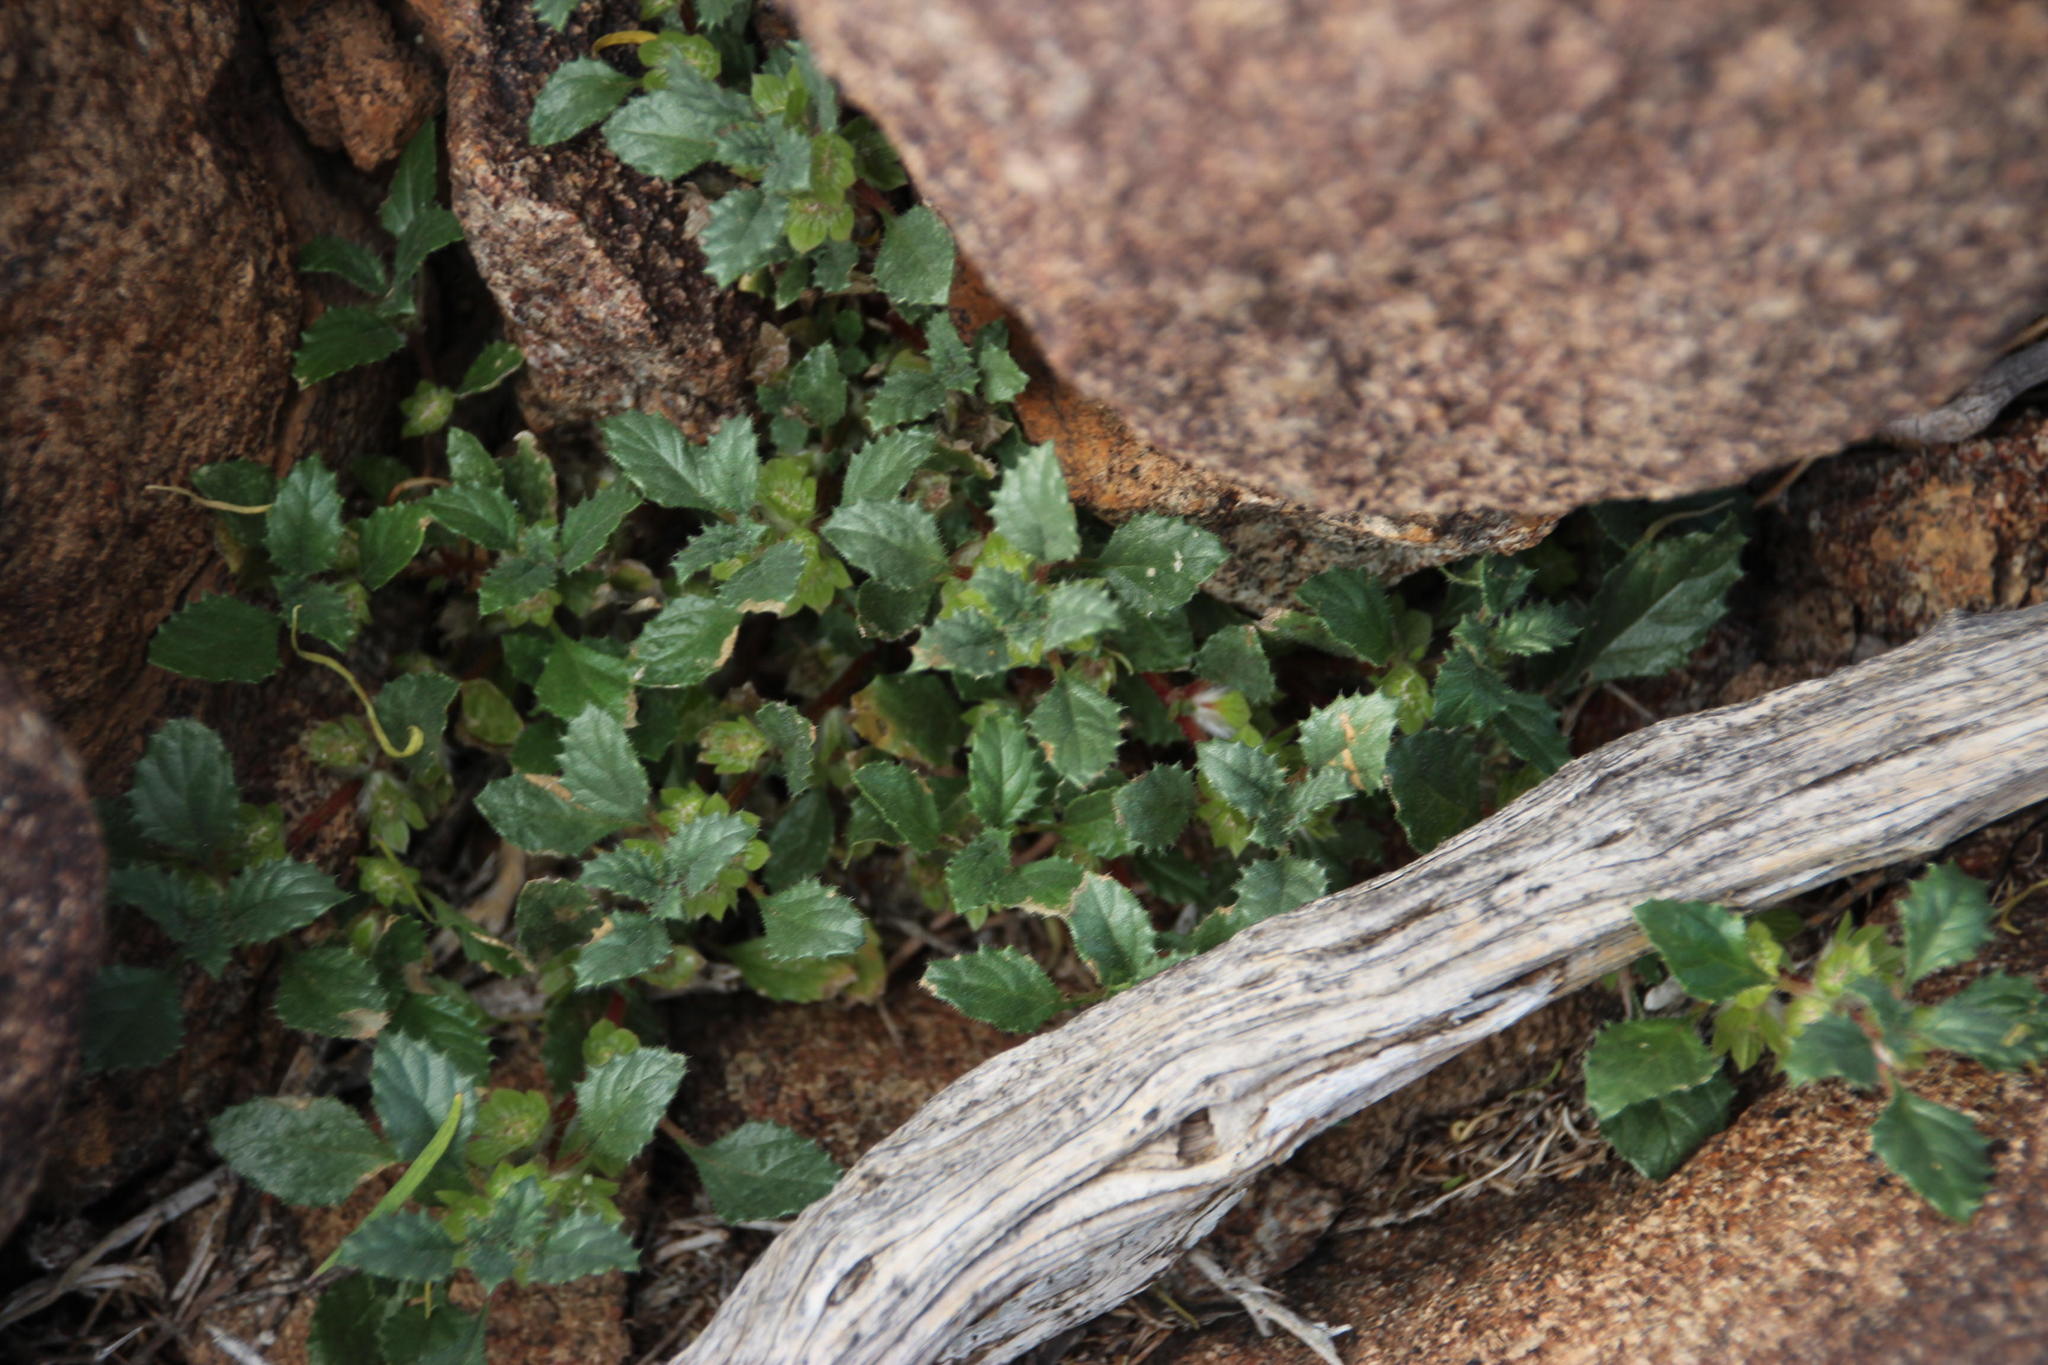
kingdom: Plantae
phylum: Tracheophyta
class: Magnoliopsida
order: Rosales
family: Urticaceae
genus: Forsskaolea
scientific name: Forsskaolea candida
